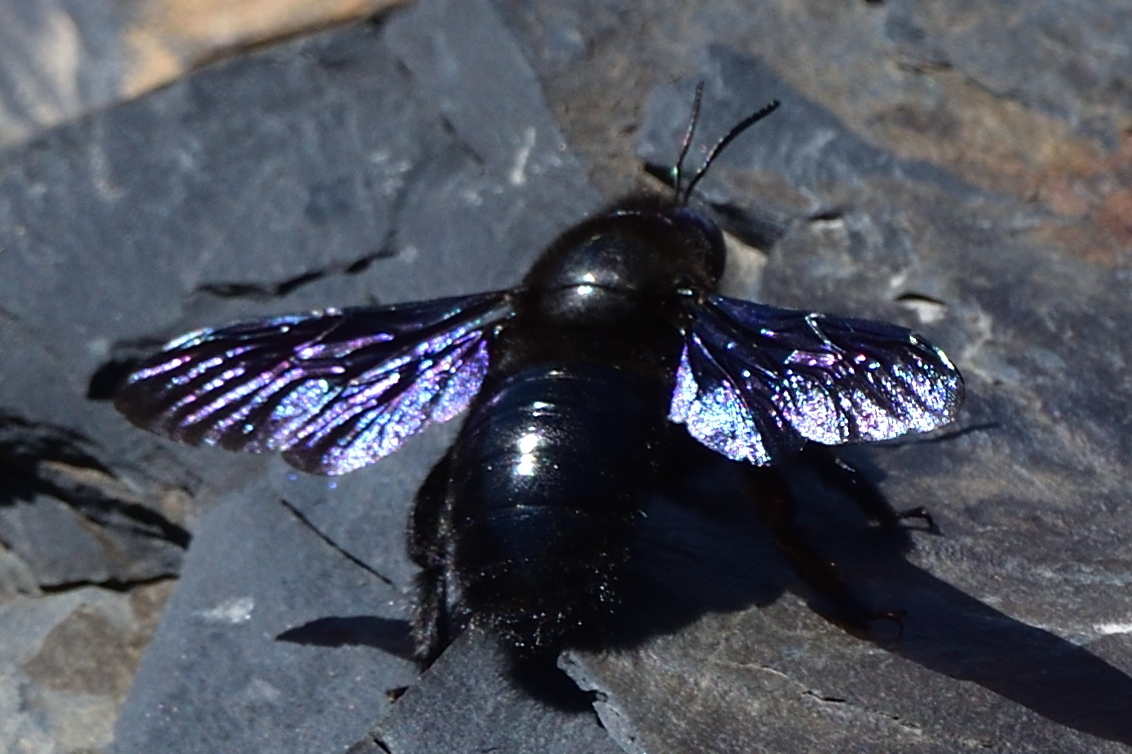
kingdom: Animalia
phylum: Arthropoda
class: Insecta
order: Hymenoptera
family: Apidae
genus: Xylocopa
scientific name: Xylocopa violacea
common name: Violet carpenter bee
